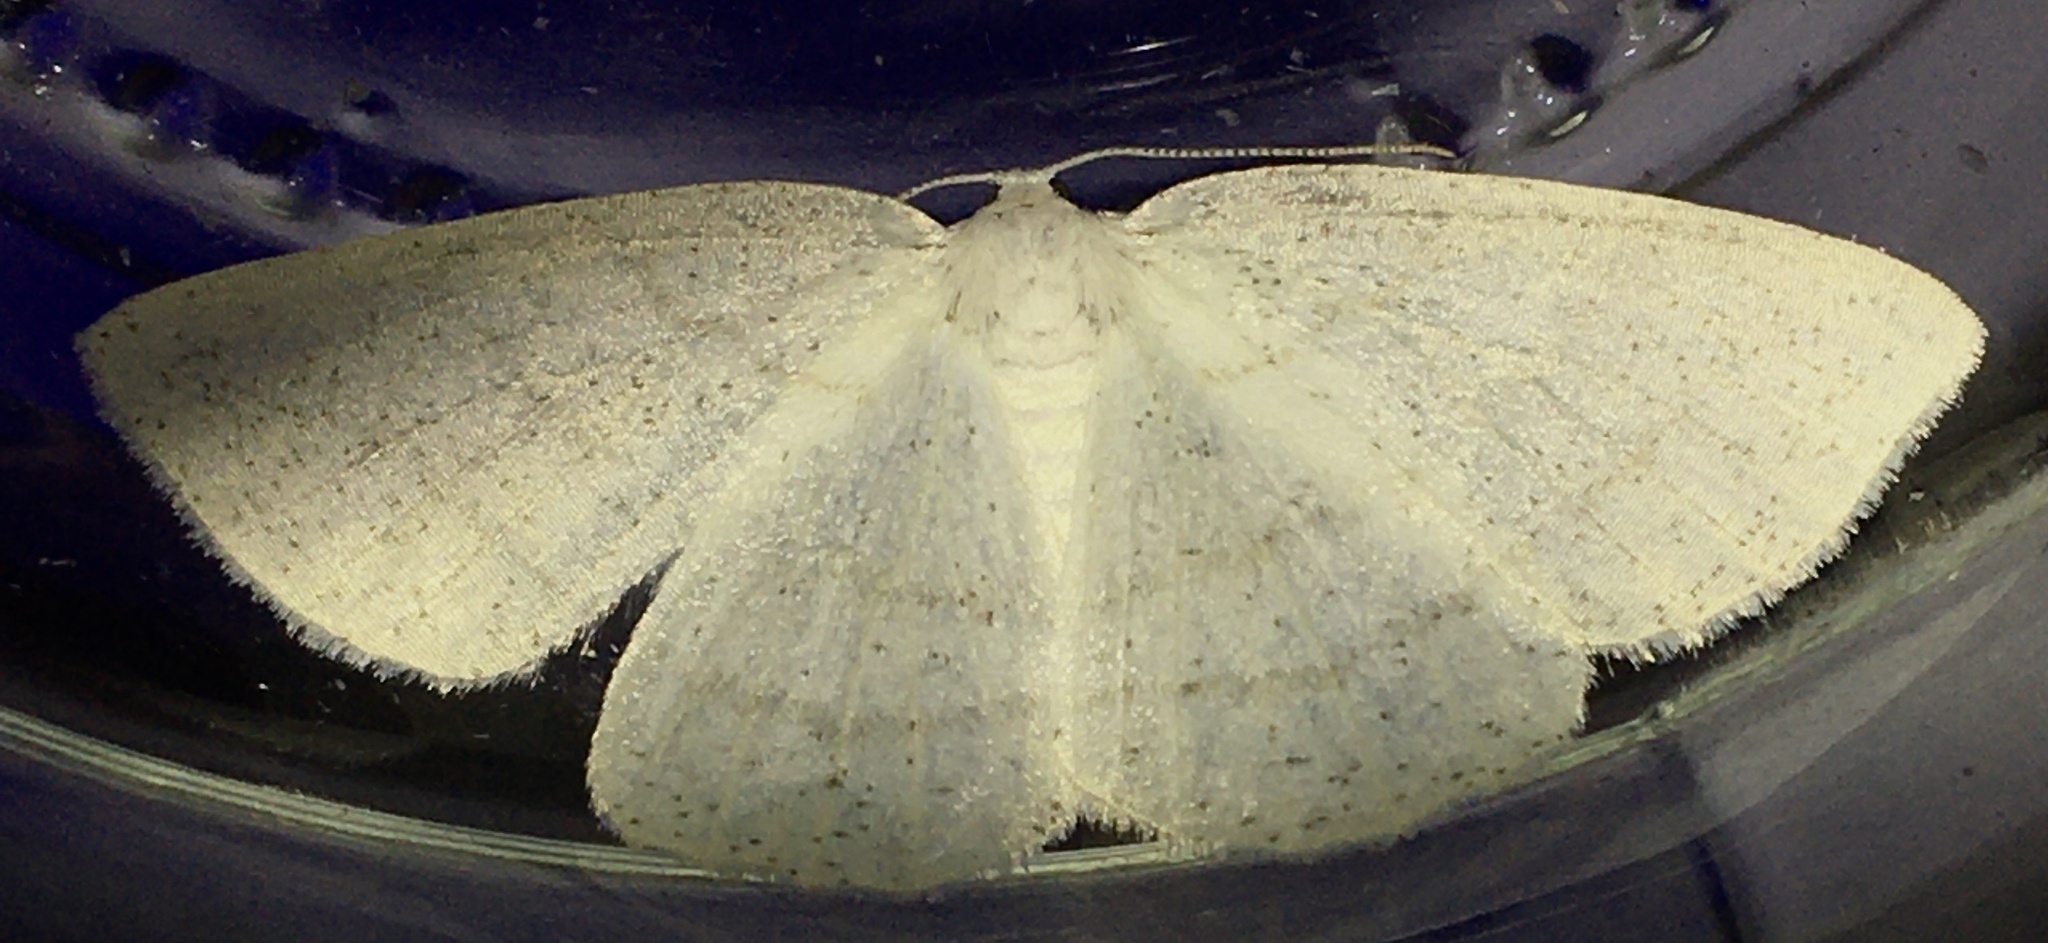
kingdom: Animalia
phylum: Arthropoda
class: Insecta
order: Lepidoptera
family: Geometridae
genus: Cabera
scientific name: Cabera pusaria
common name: Common white wave
